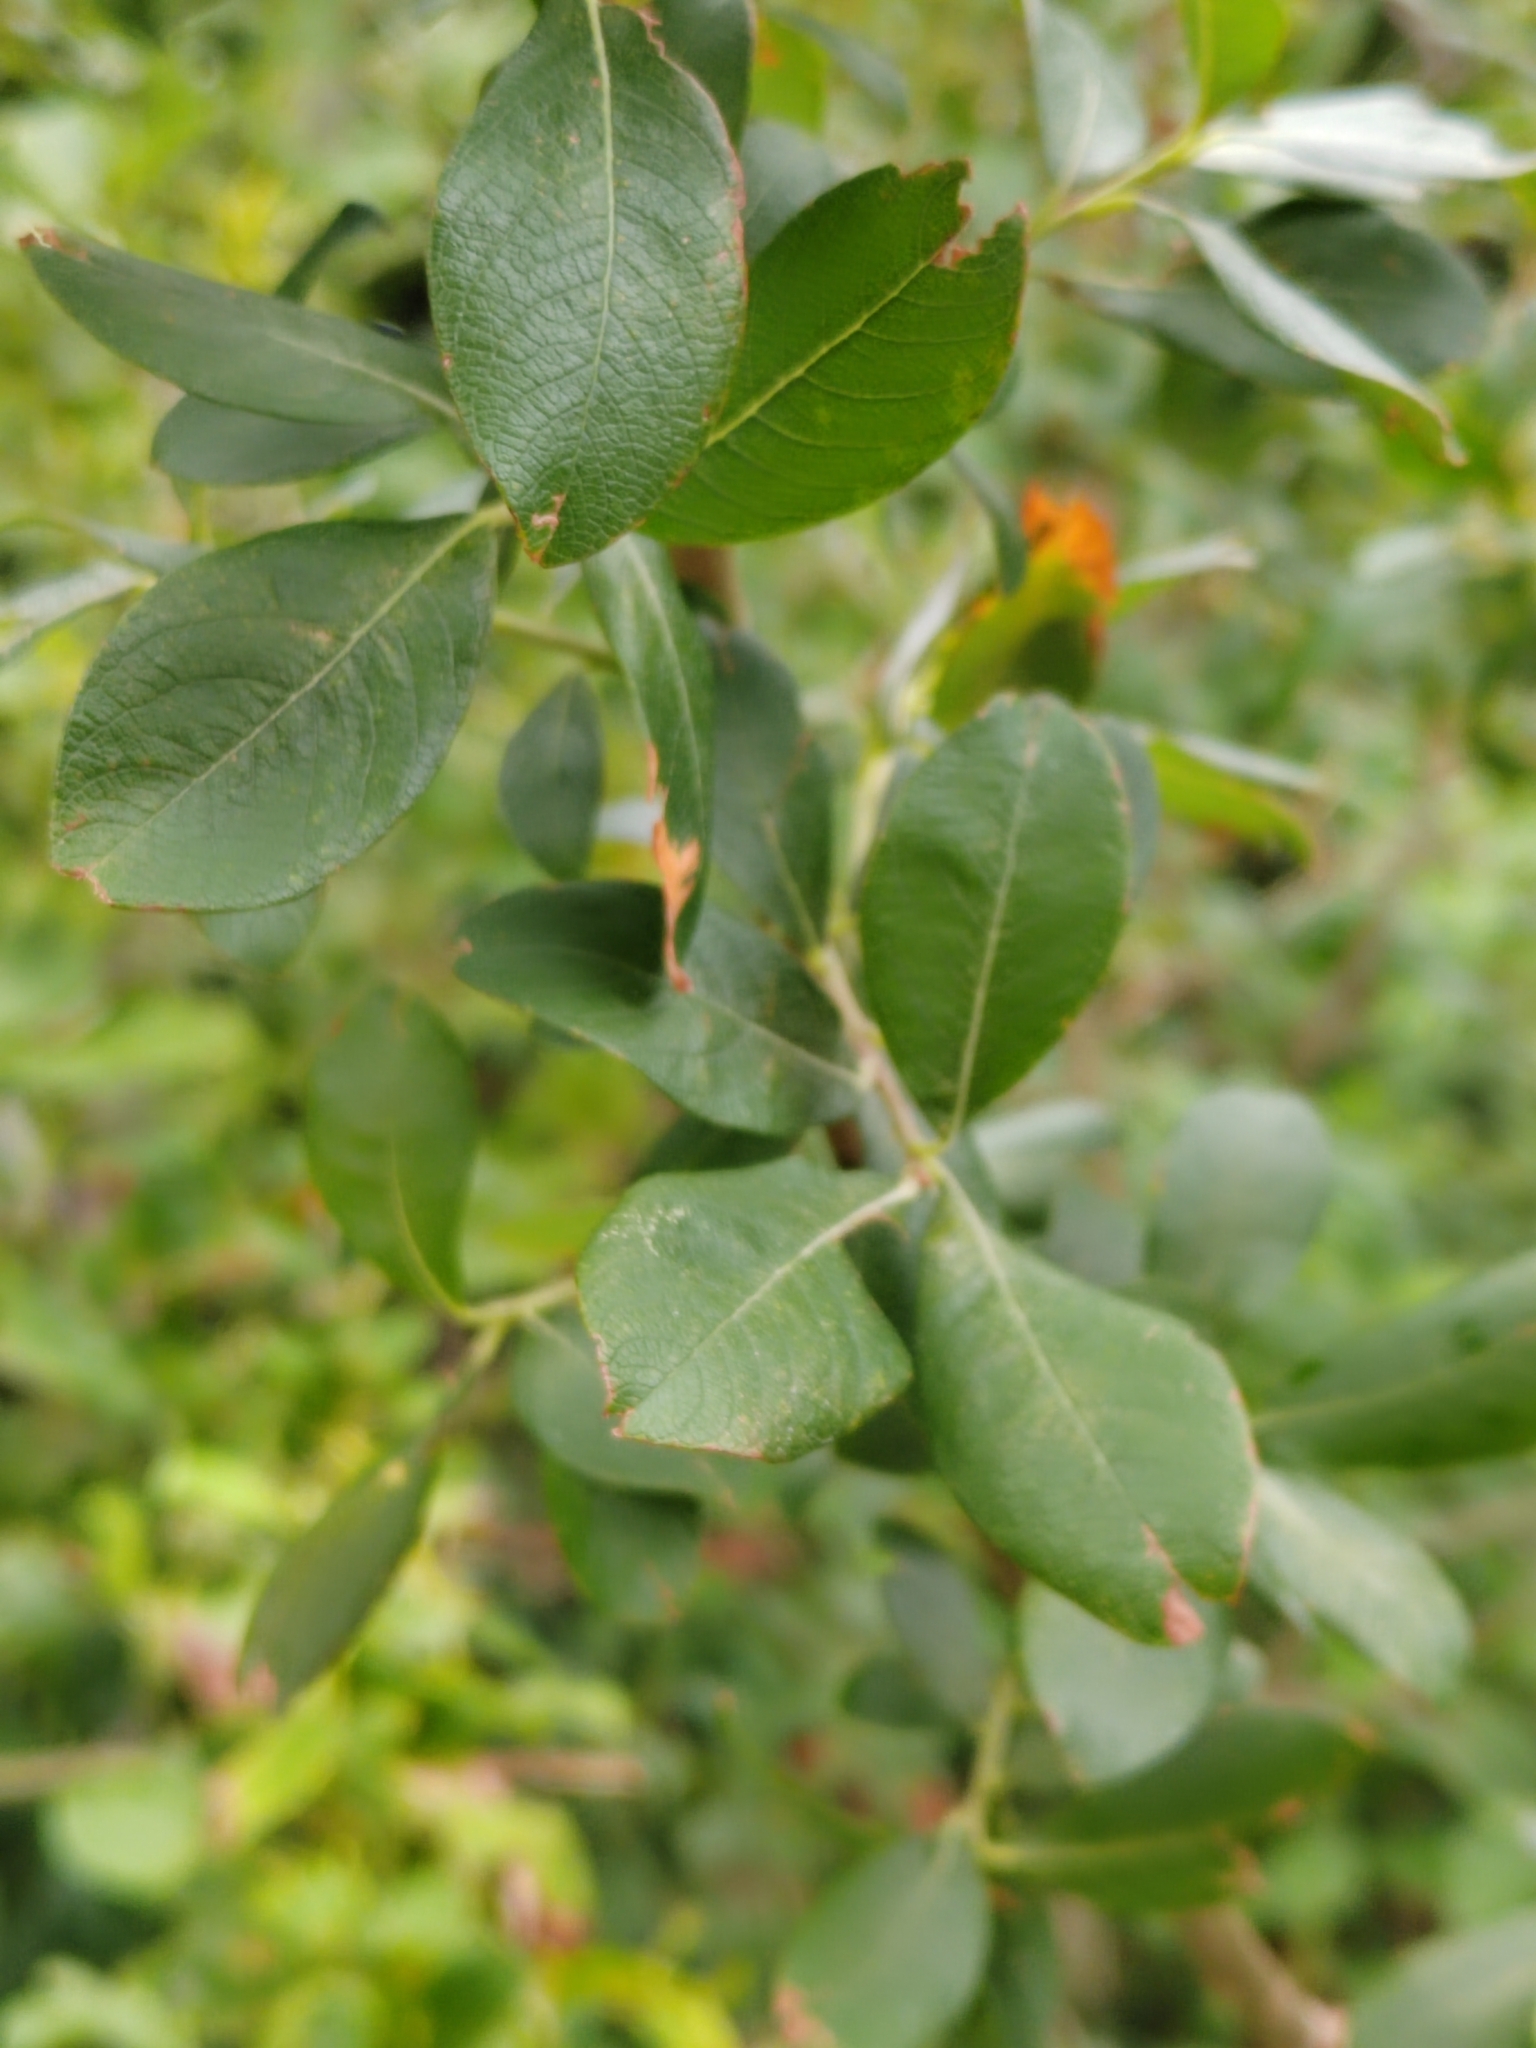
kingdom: Plantae
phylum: Tracheophyta
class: Magnoliopsida
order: Malpighiales
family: Salicaceae
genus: Salix
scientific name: Salix cinerea
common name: Common sallow
